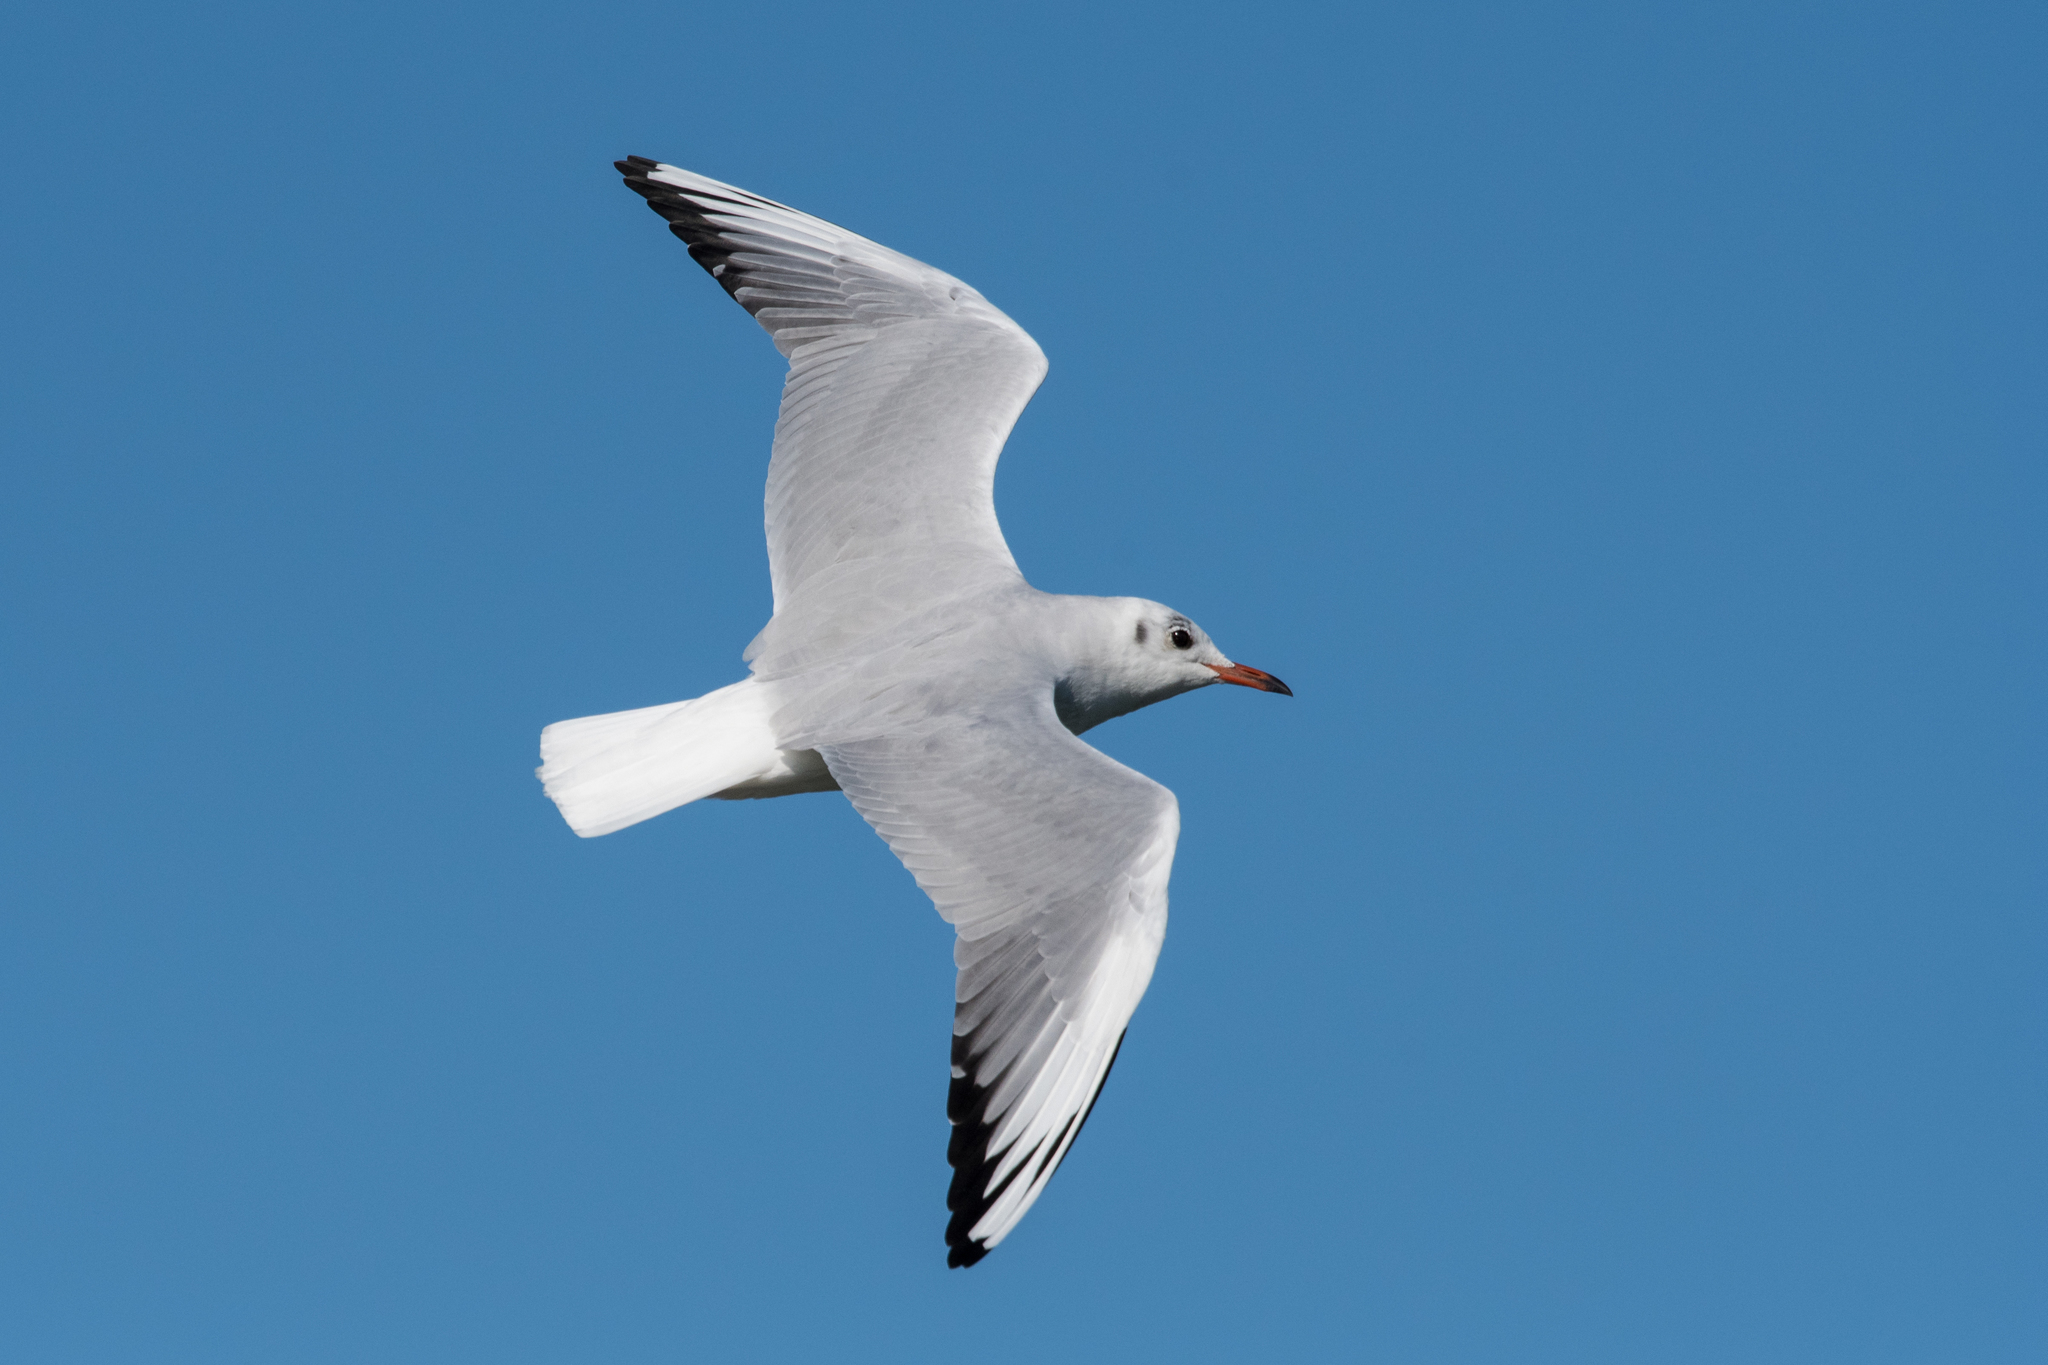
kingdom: Animalia
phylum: Chordata
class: Aves
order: Charadriiformes
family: Laridae
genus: Chroicocephalus
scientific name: Chroicocephalus ridibundus
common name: Black-headed gull
